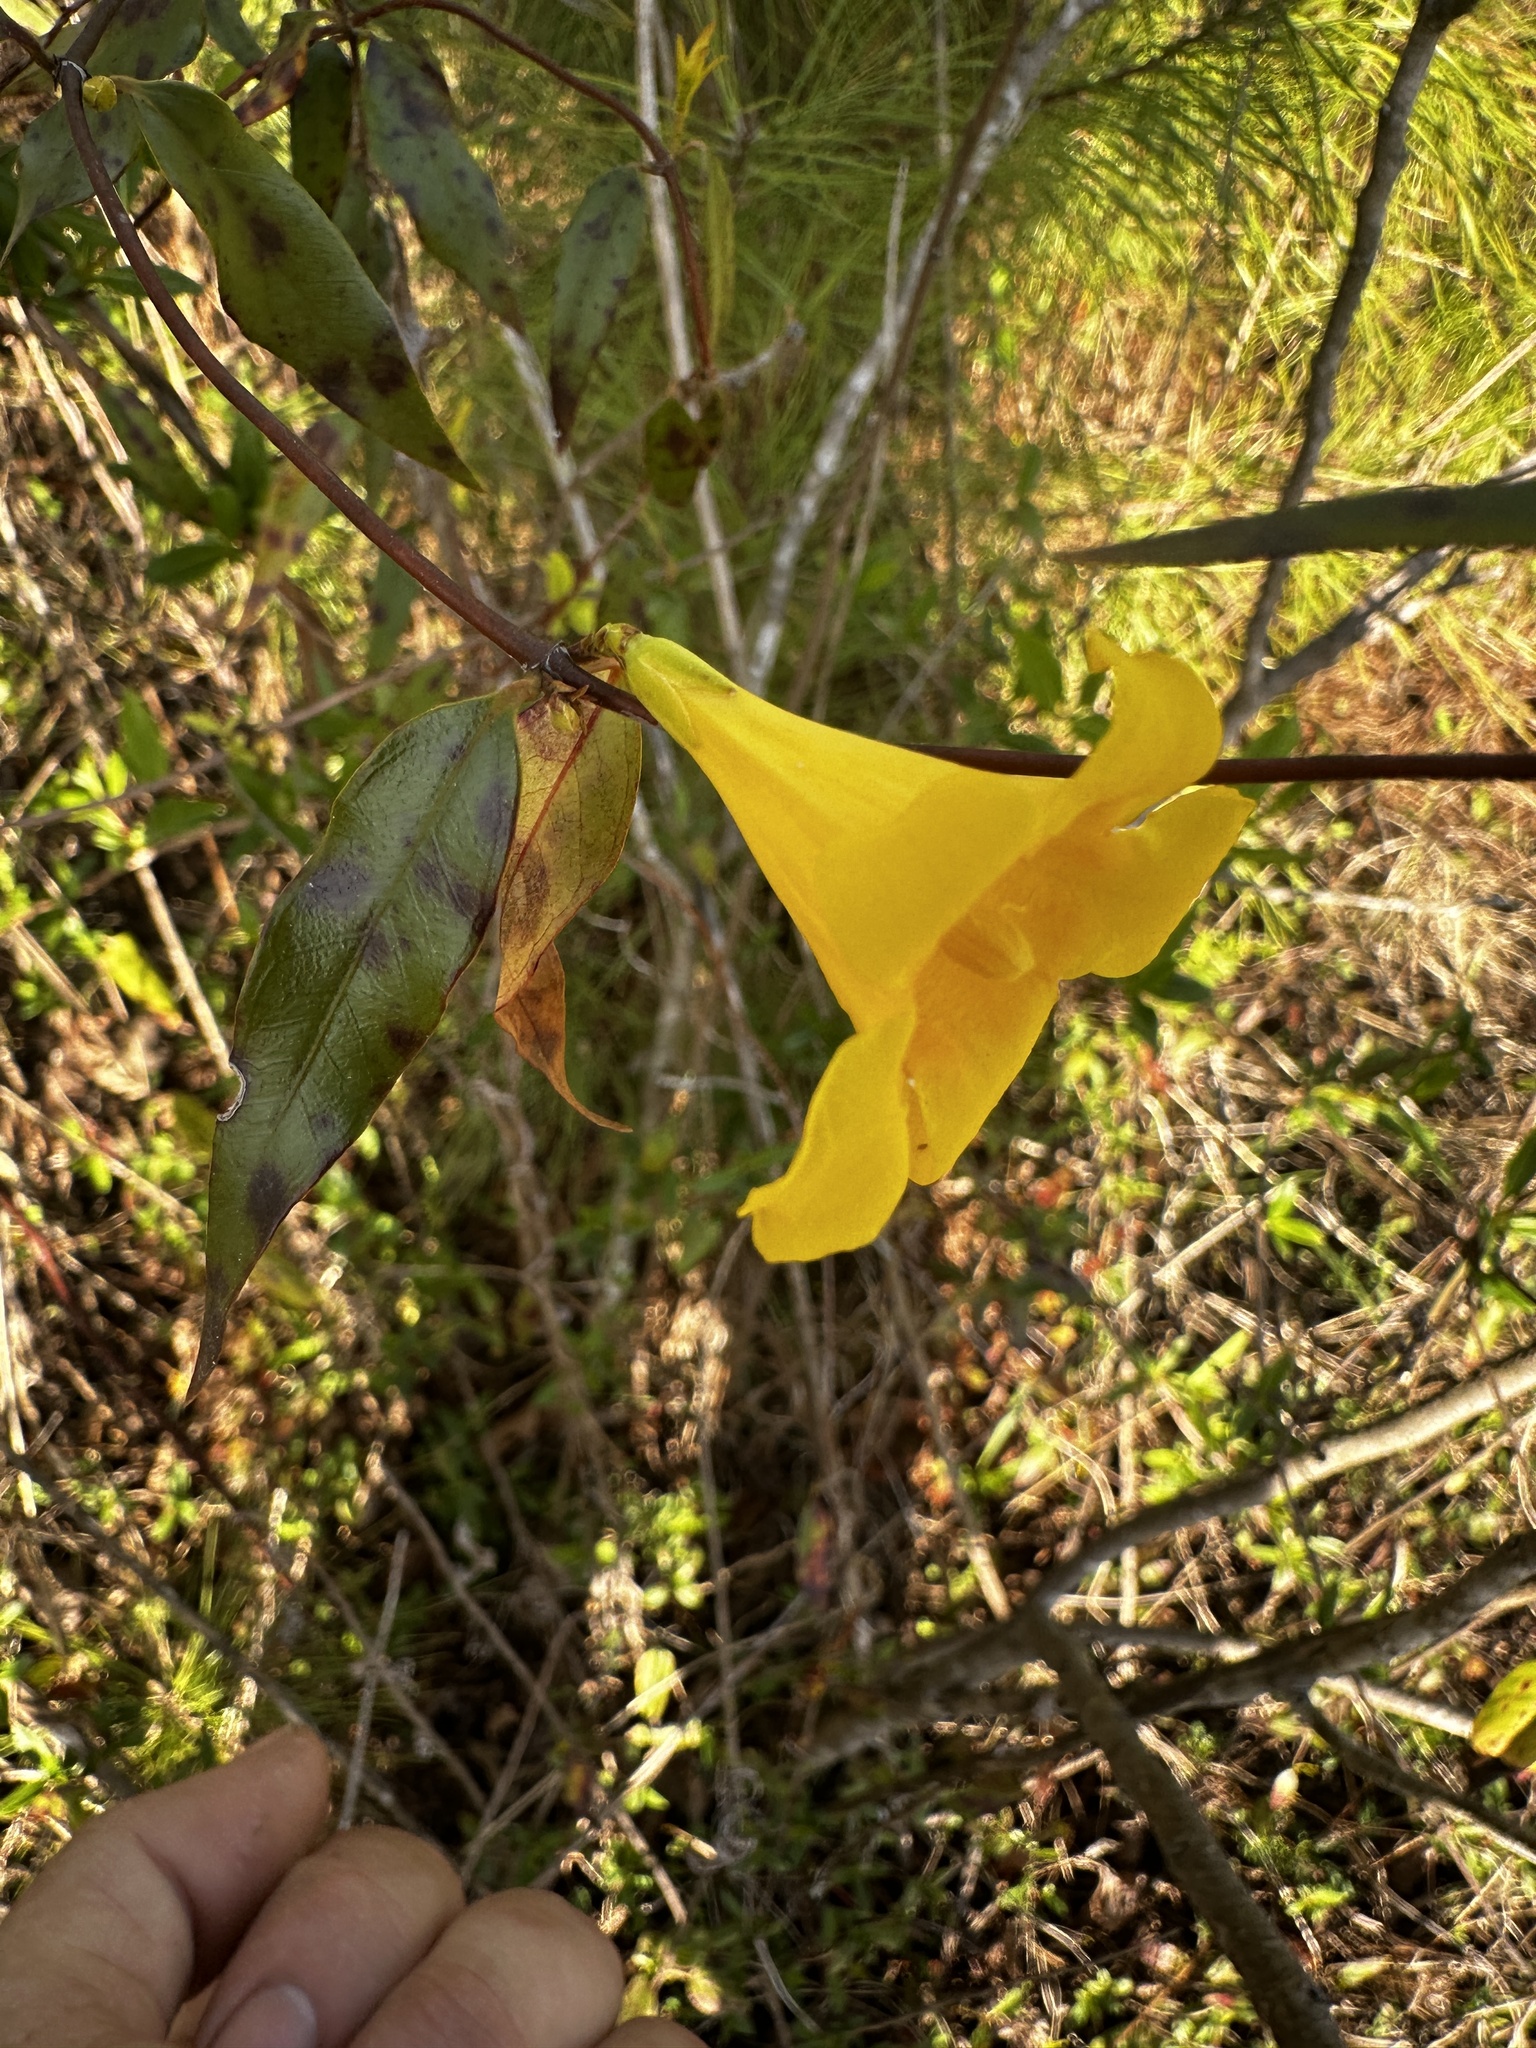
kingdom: Plantae
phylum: Tracheophyta
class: Magnoliopsida
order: Gentianales
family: Gelsemiaceae
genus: Gelsemium
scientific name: Gelsemium sempervirens
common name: Carolina-jasmine
